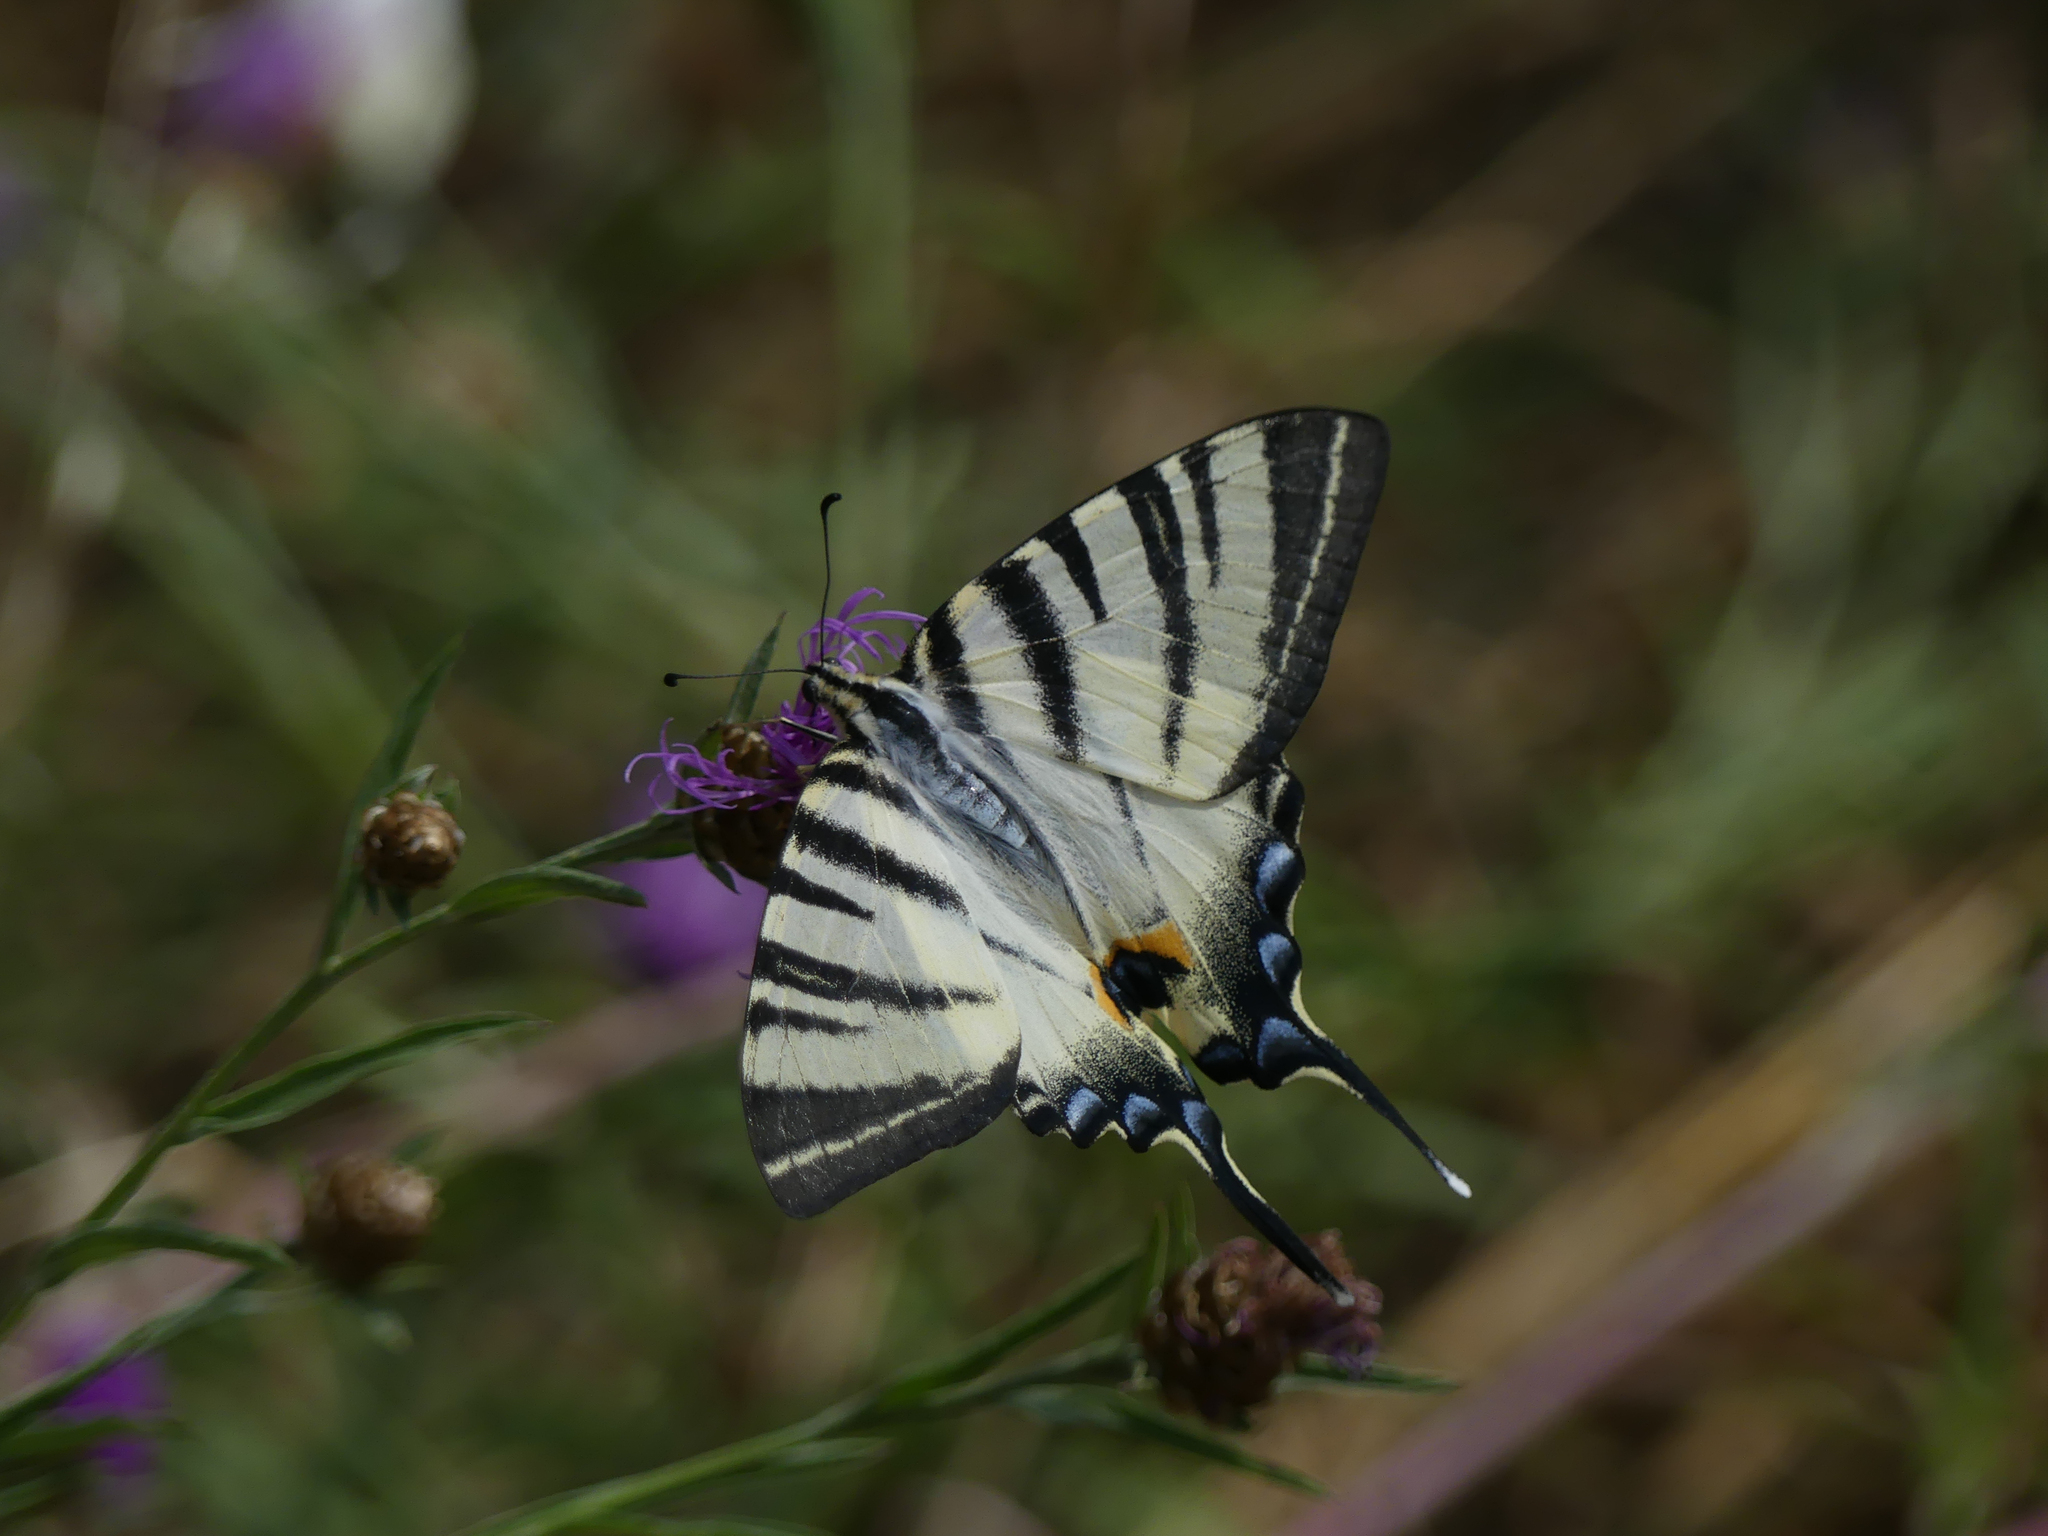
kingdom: Animalia
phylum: Arthropoda
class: Insecta
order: Lepidoptera
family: Papilionidae
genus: Iphiclides
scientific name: Iphiclides podalirius
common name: Scarce swallowtail
